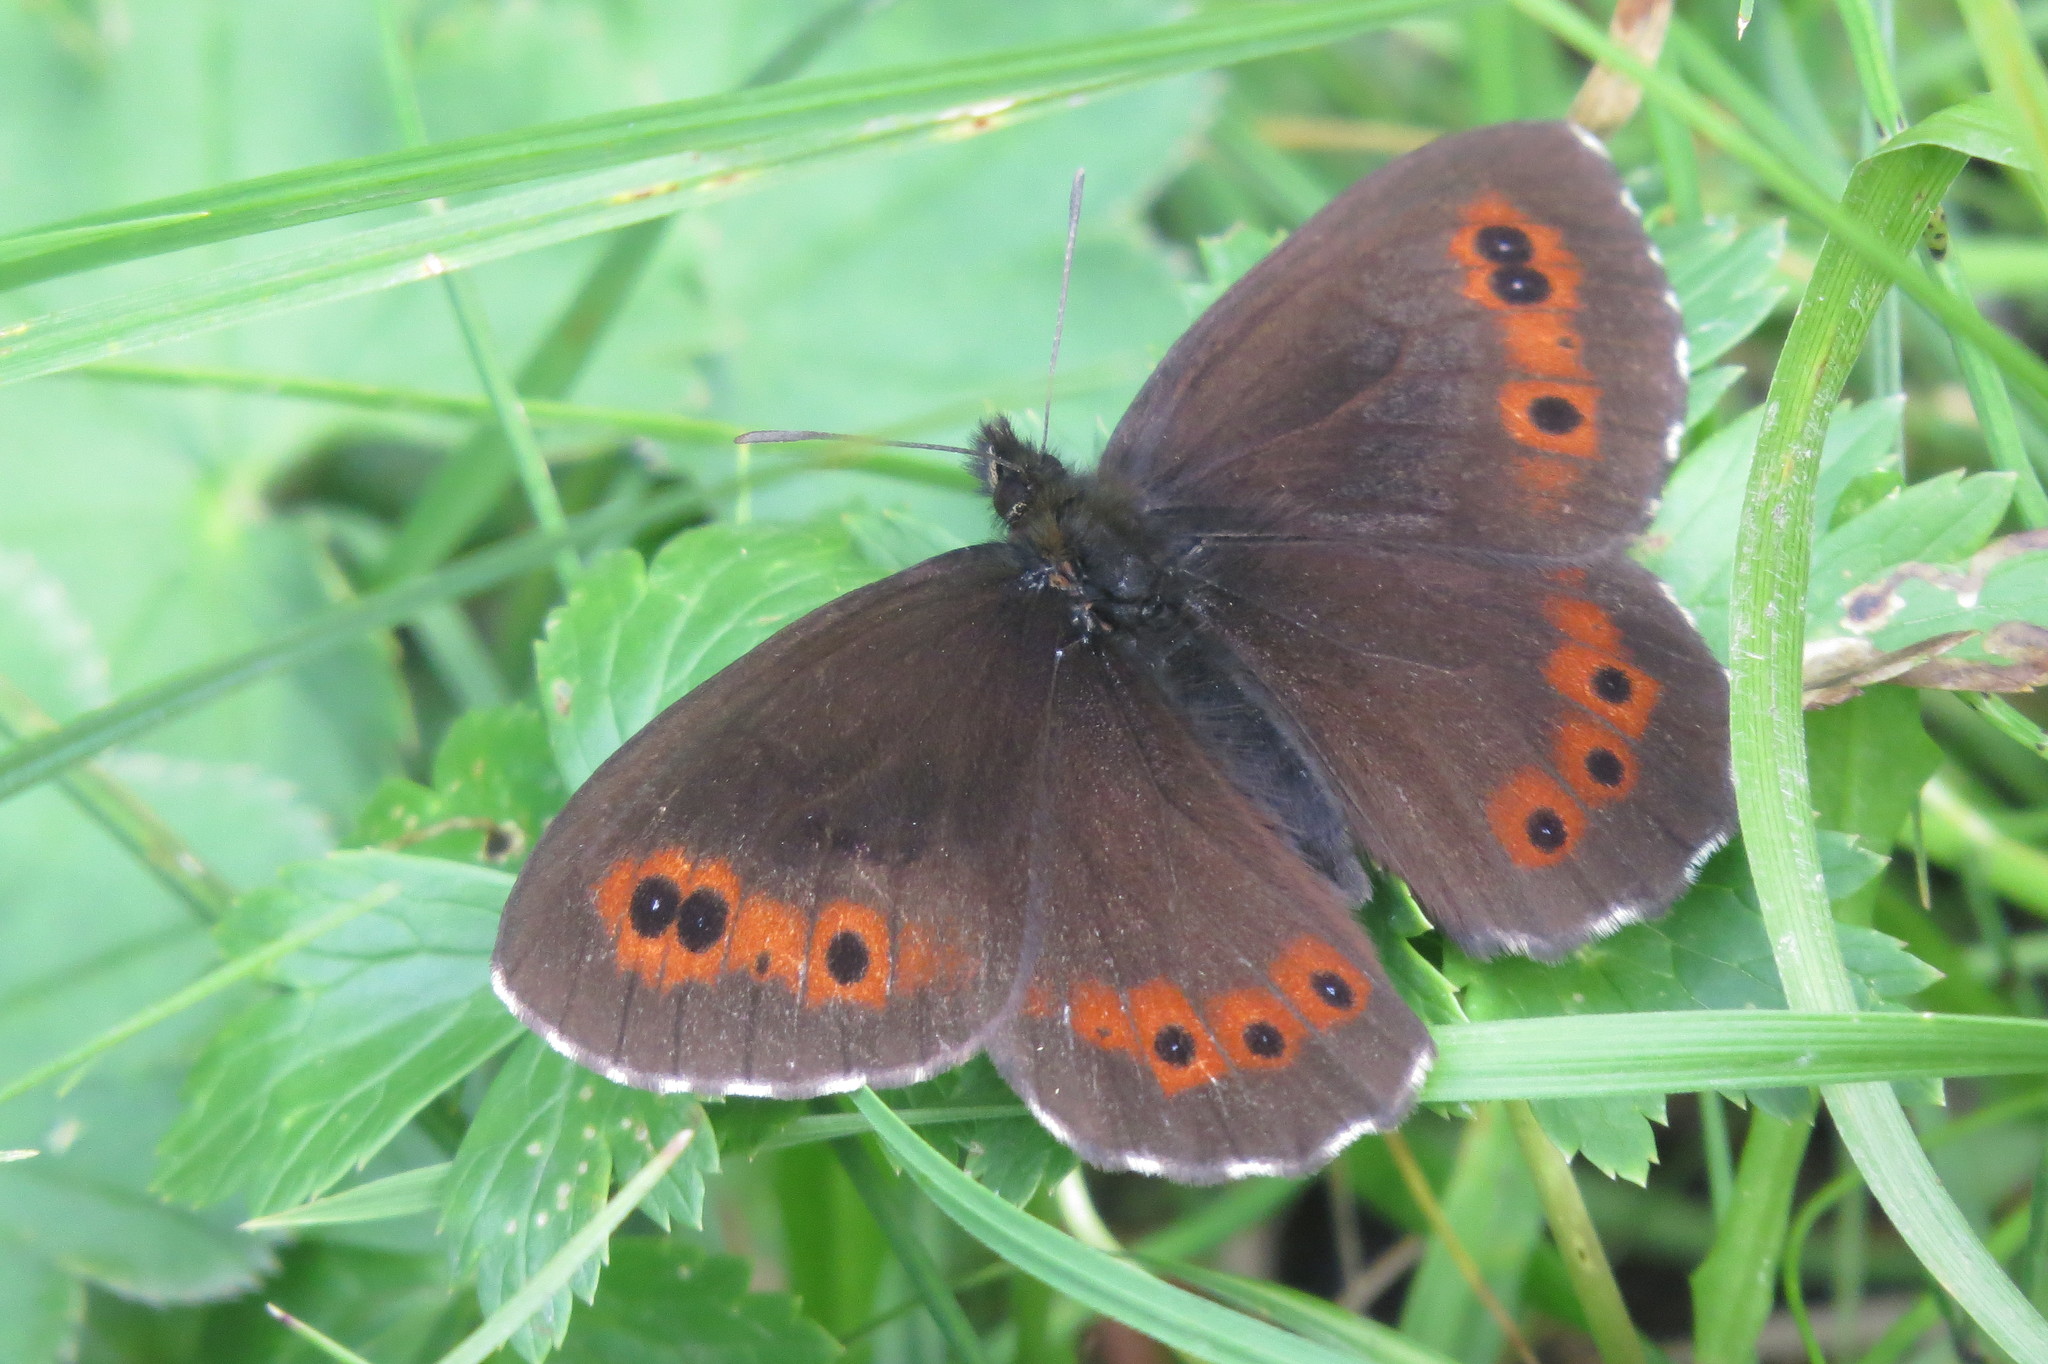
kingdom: Animalia
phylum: Arthropoda
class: Insecta
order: Lepidoptera
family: Nymphalidae
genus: Erebia
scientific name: Erebia ligea
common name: Arran brown
